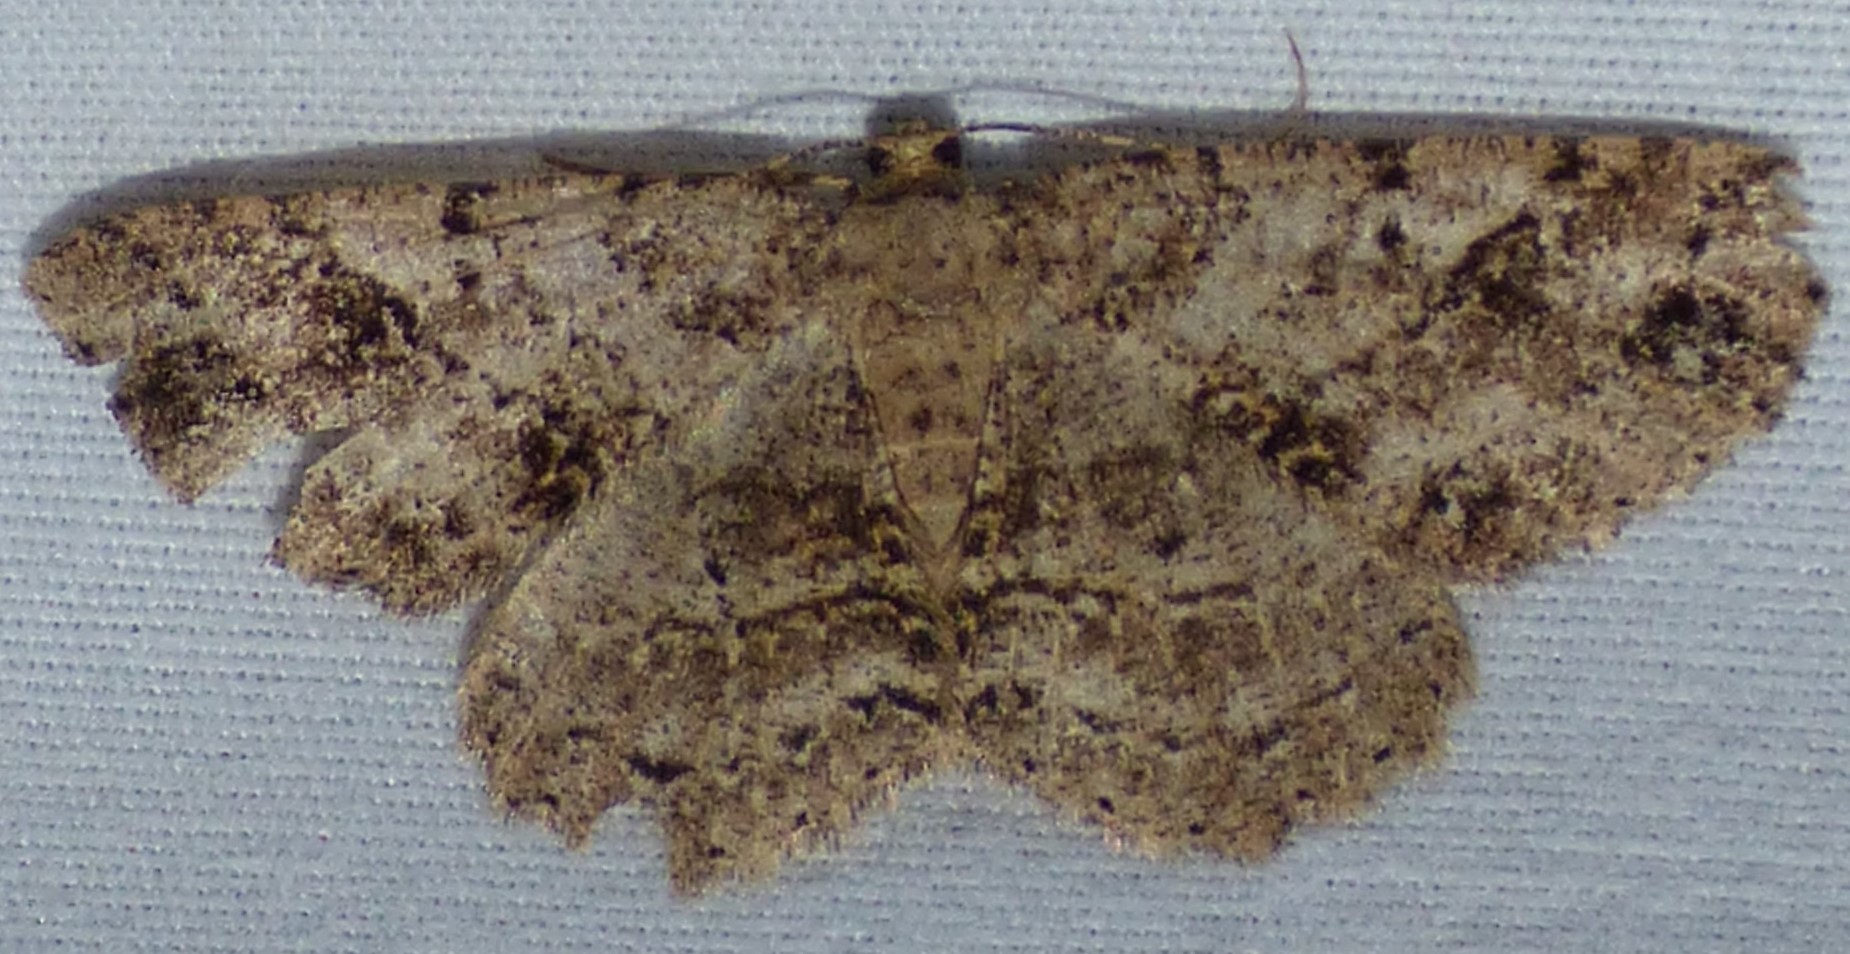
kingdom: Animalia
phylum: Arthropoda
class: Insecta
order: Lepidoptera
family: Geometridae
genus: Melanolophia
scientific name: Melanolophia canadaria
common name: Canadian melanolophia
